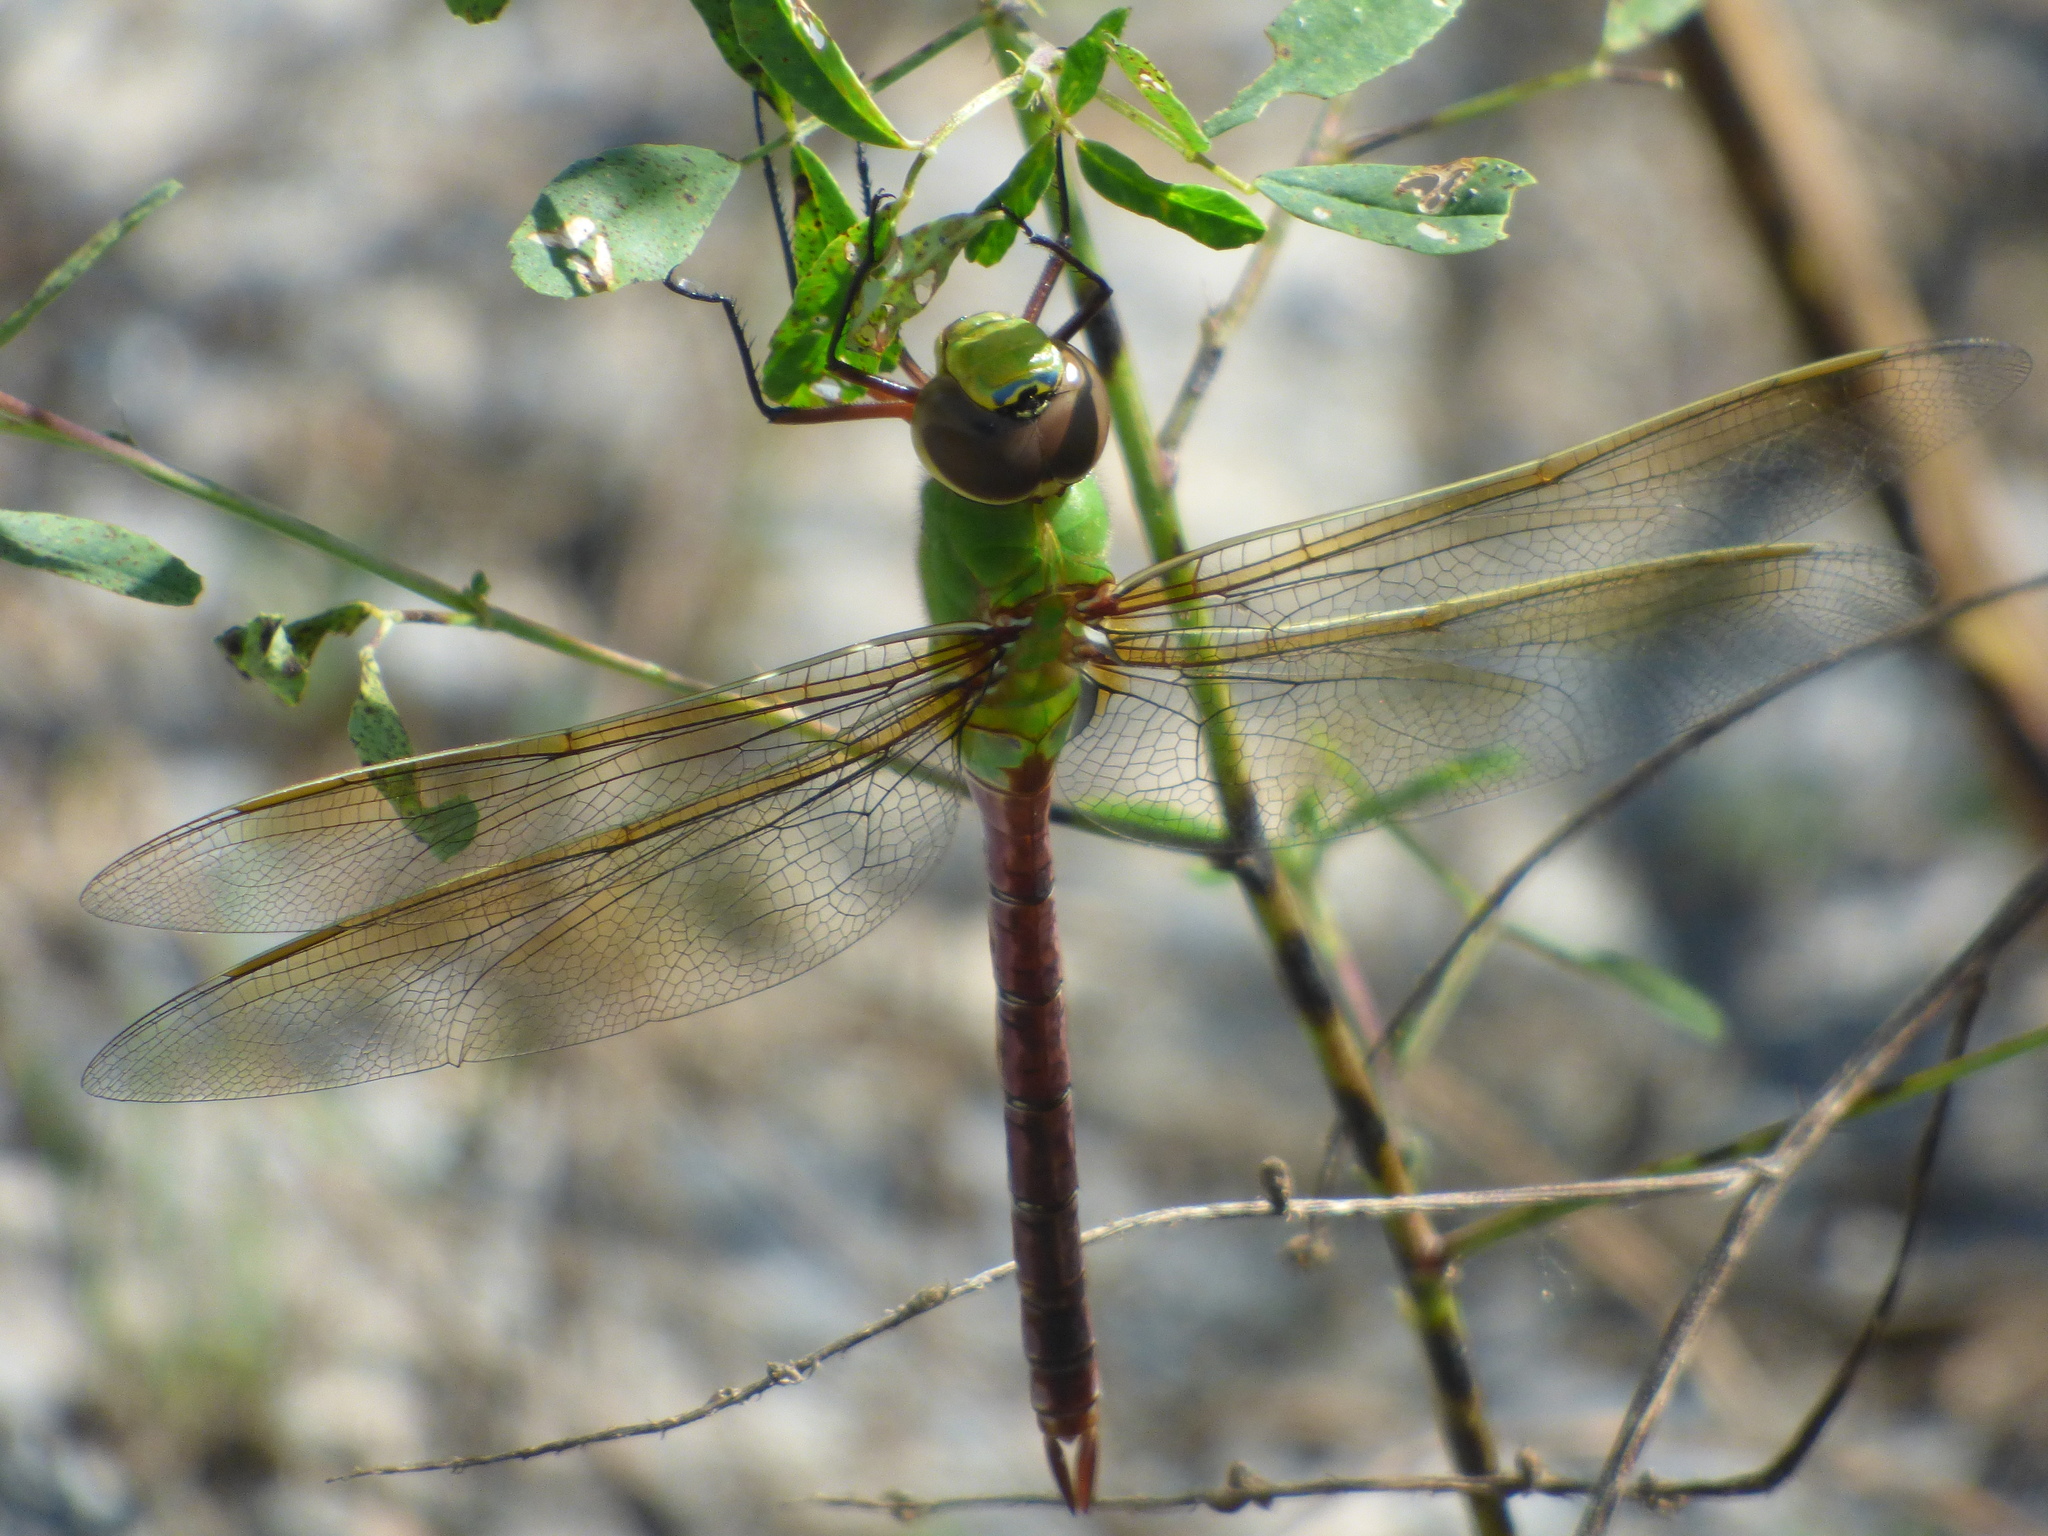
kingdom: Animalia
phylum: Arthropoda
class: Insecta
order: Odonata
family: Aeshnidae
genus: Anax
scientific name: Anax junius
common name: Common green darner
